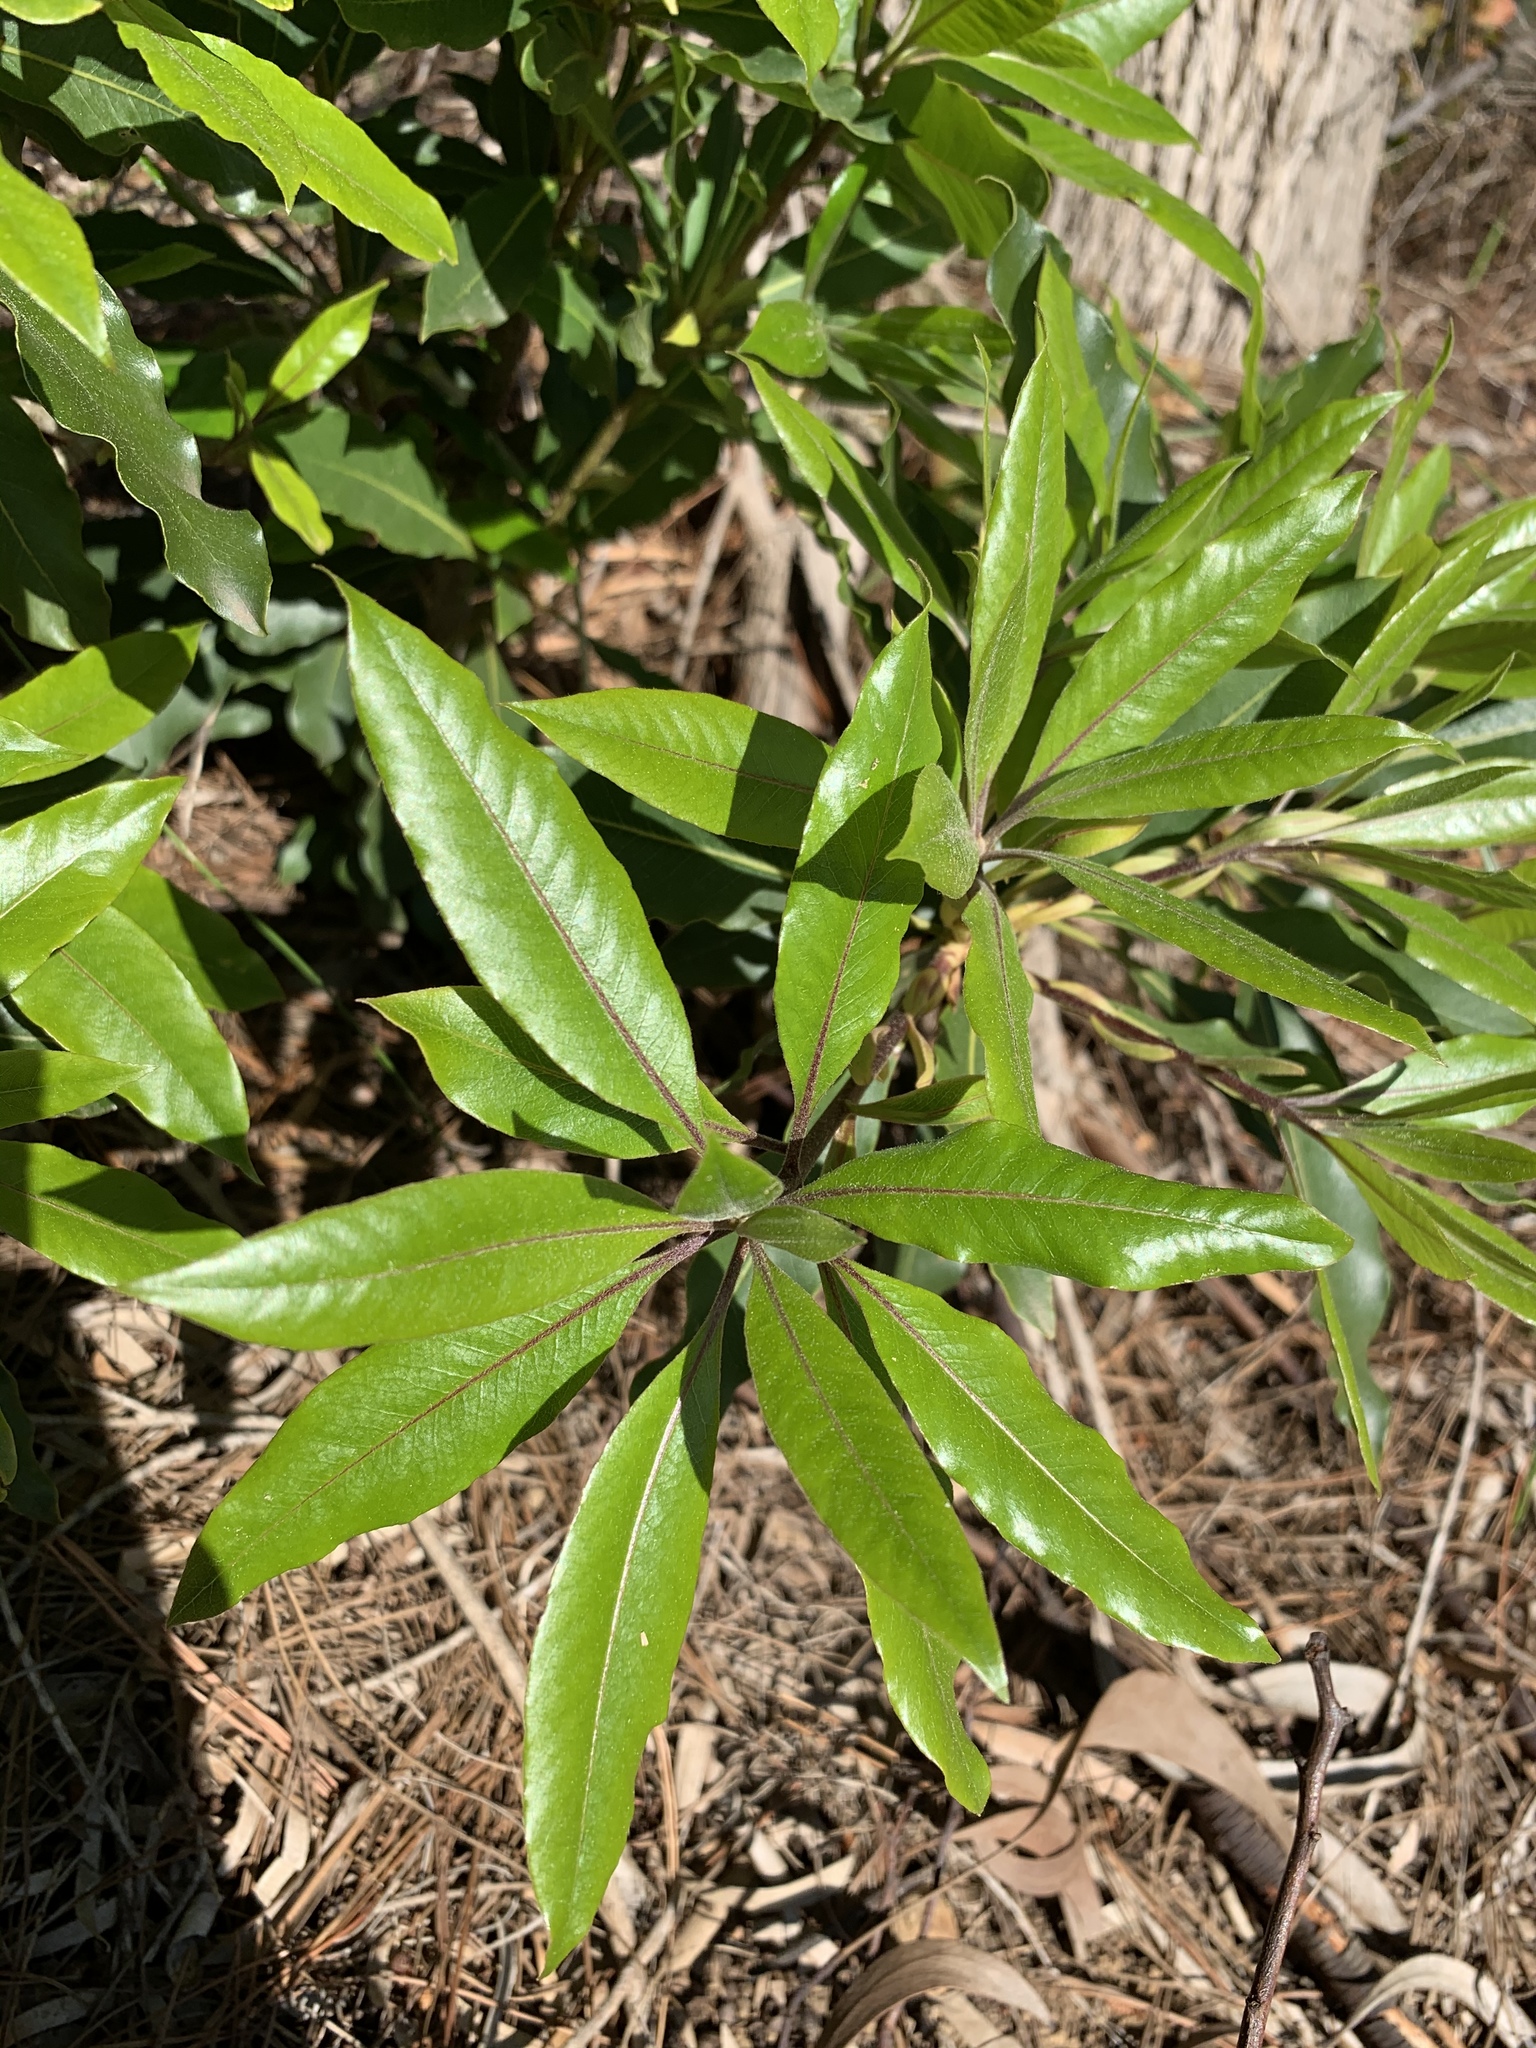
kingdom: Plantae
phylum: Tracheophyta
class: Magnoliopsida
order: Apiales
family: Pittosporaceae
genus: Pittosporum
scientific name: Pittosporum undulatum
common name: Australian cheesewood
